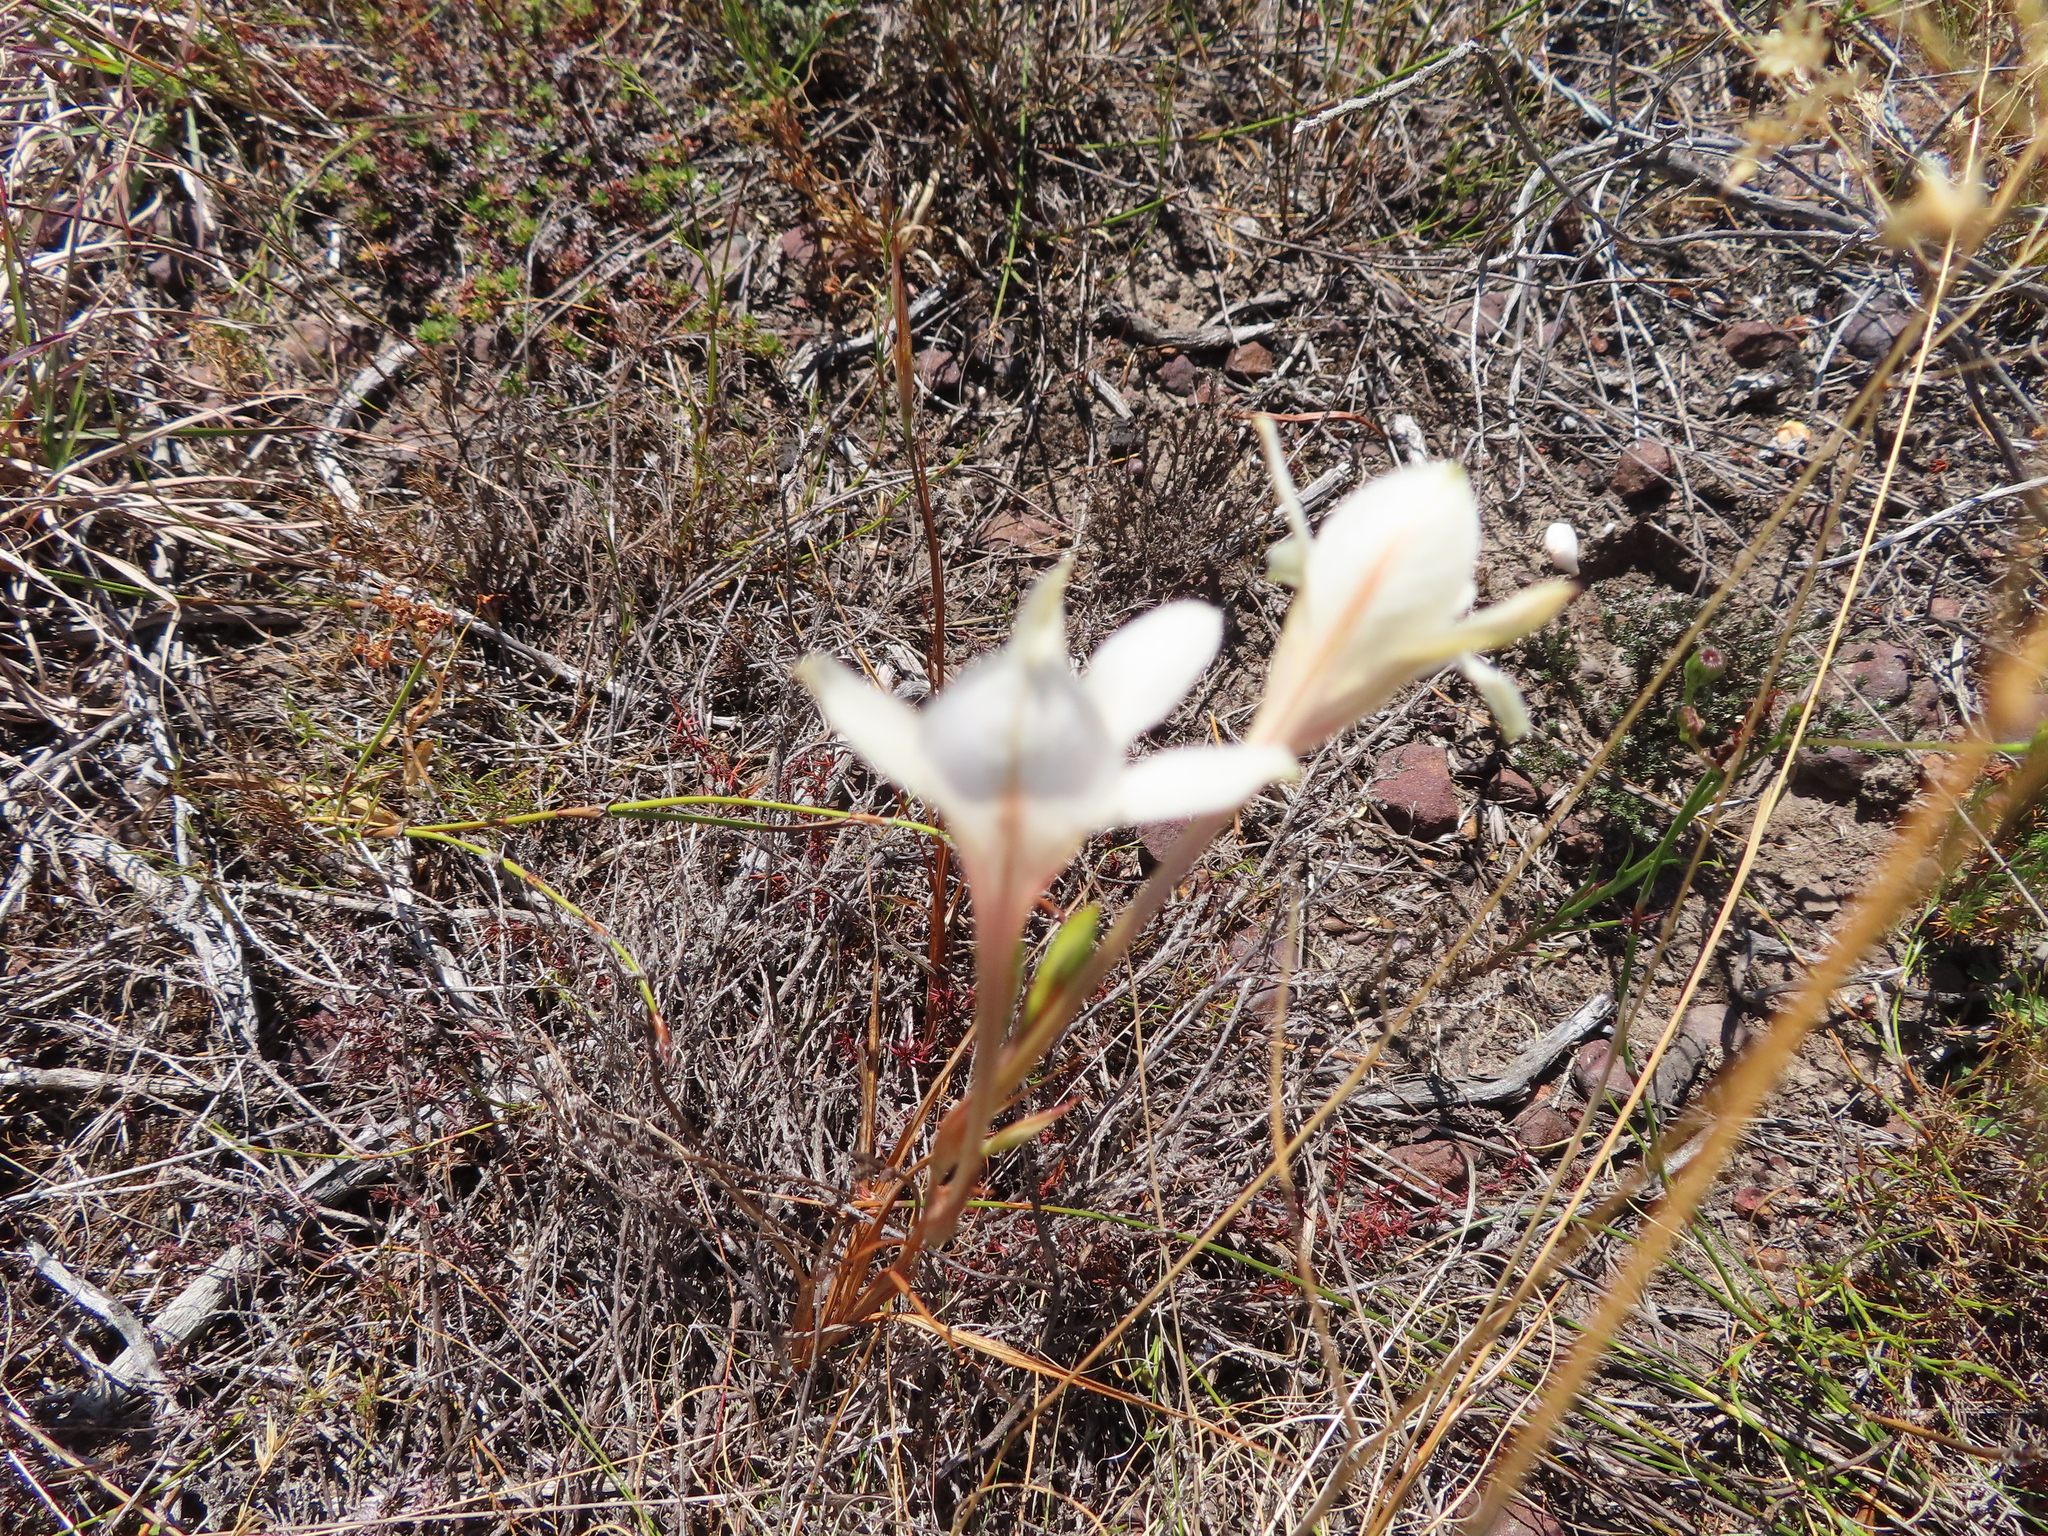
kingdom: Plantae
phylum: Tracheophyta
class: Liliopsida
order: Asparagales
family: Iridaceae
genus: Tritonia
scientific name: Tritonia flabellifolia
